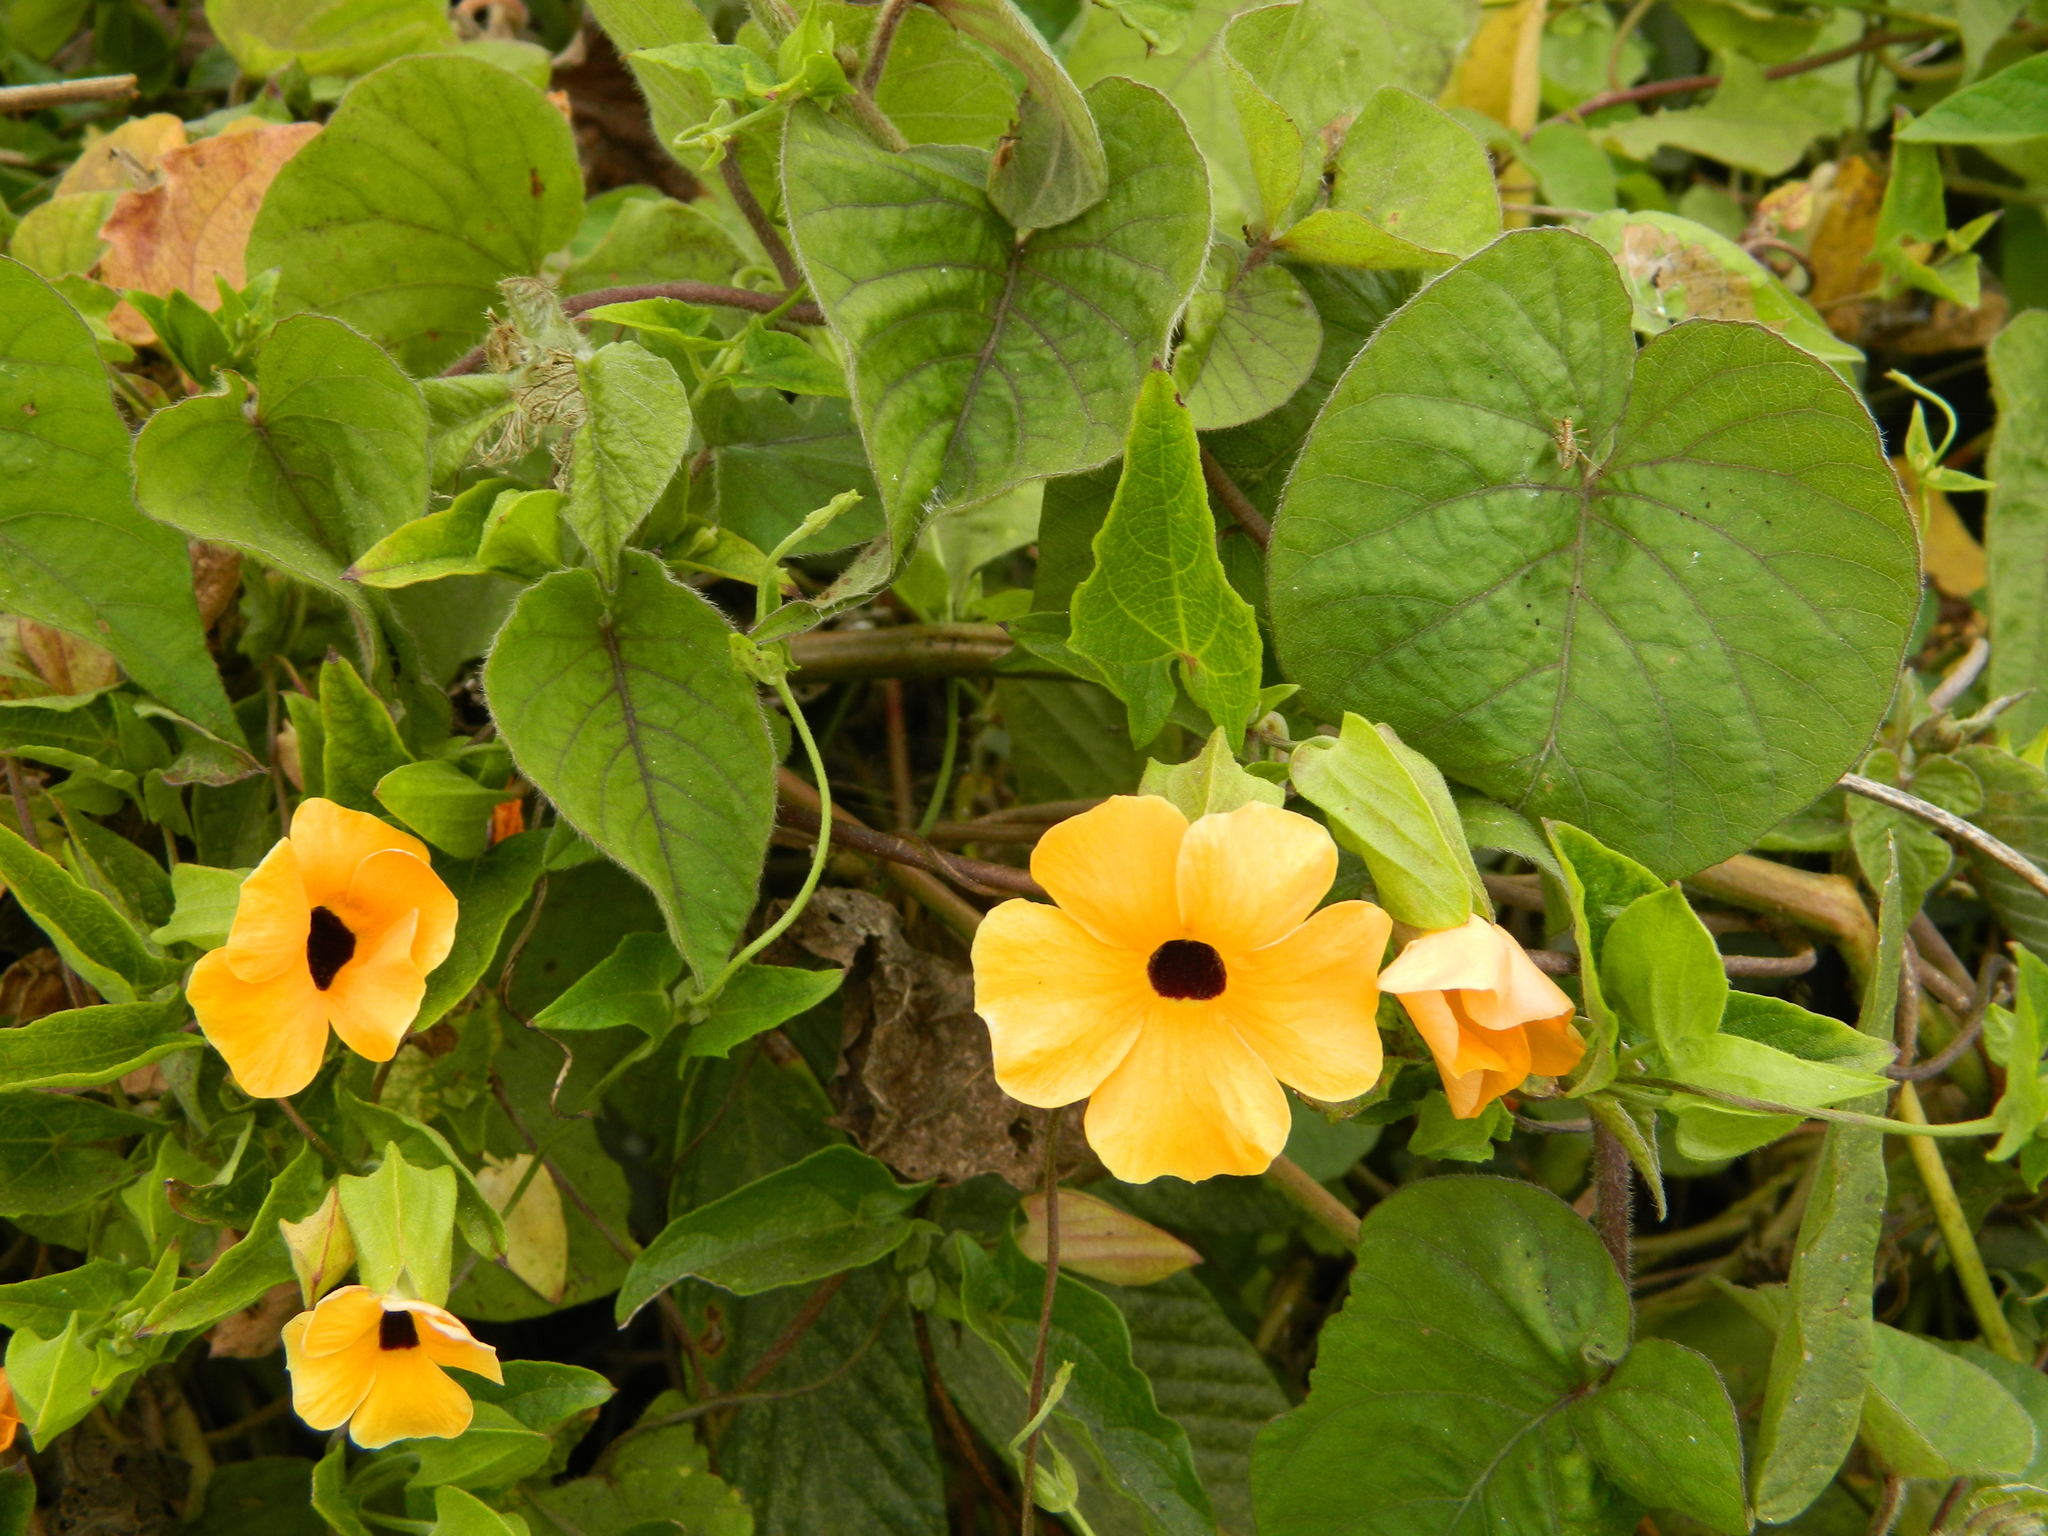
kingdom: Plantae
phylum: Tracheophyta
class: Magnoliopsida
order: Lamiales
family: Acanthaceae
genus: Thunbergia
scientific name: Thunbergia alata
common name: Blackeyed susan vine
